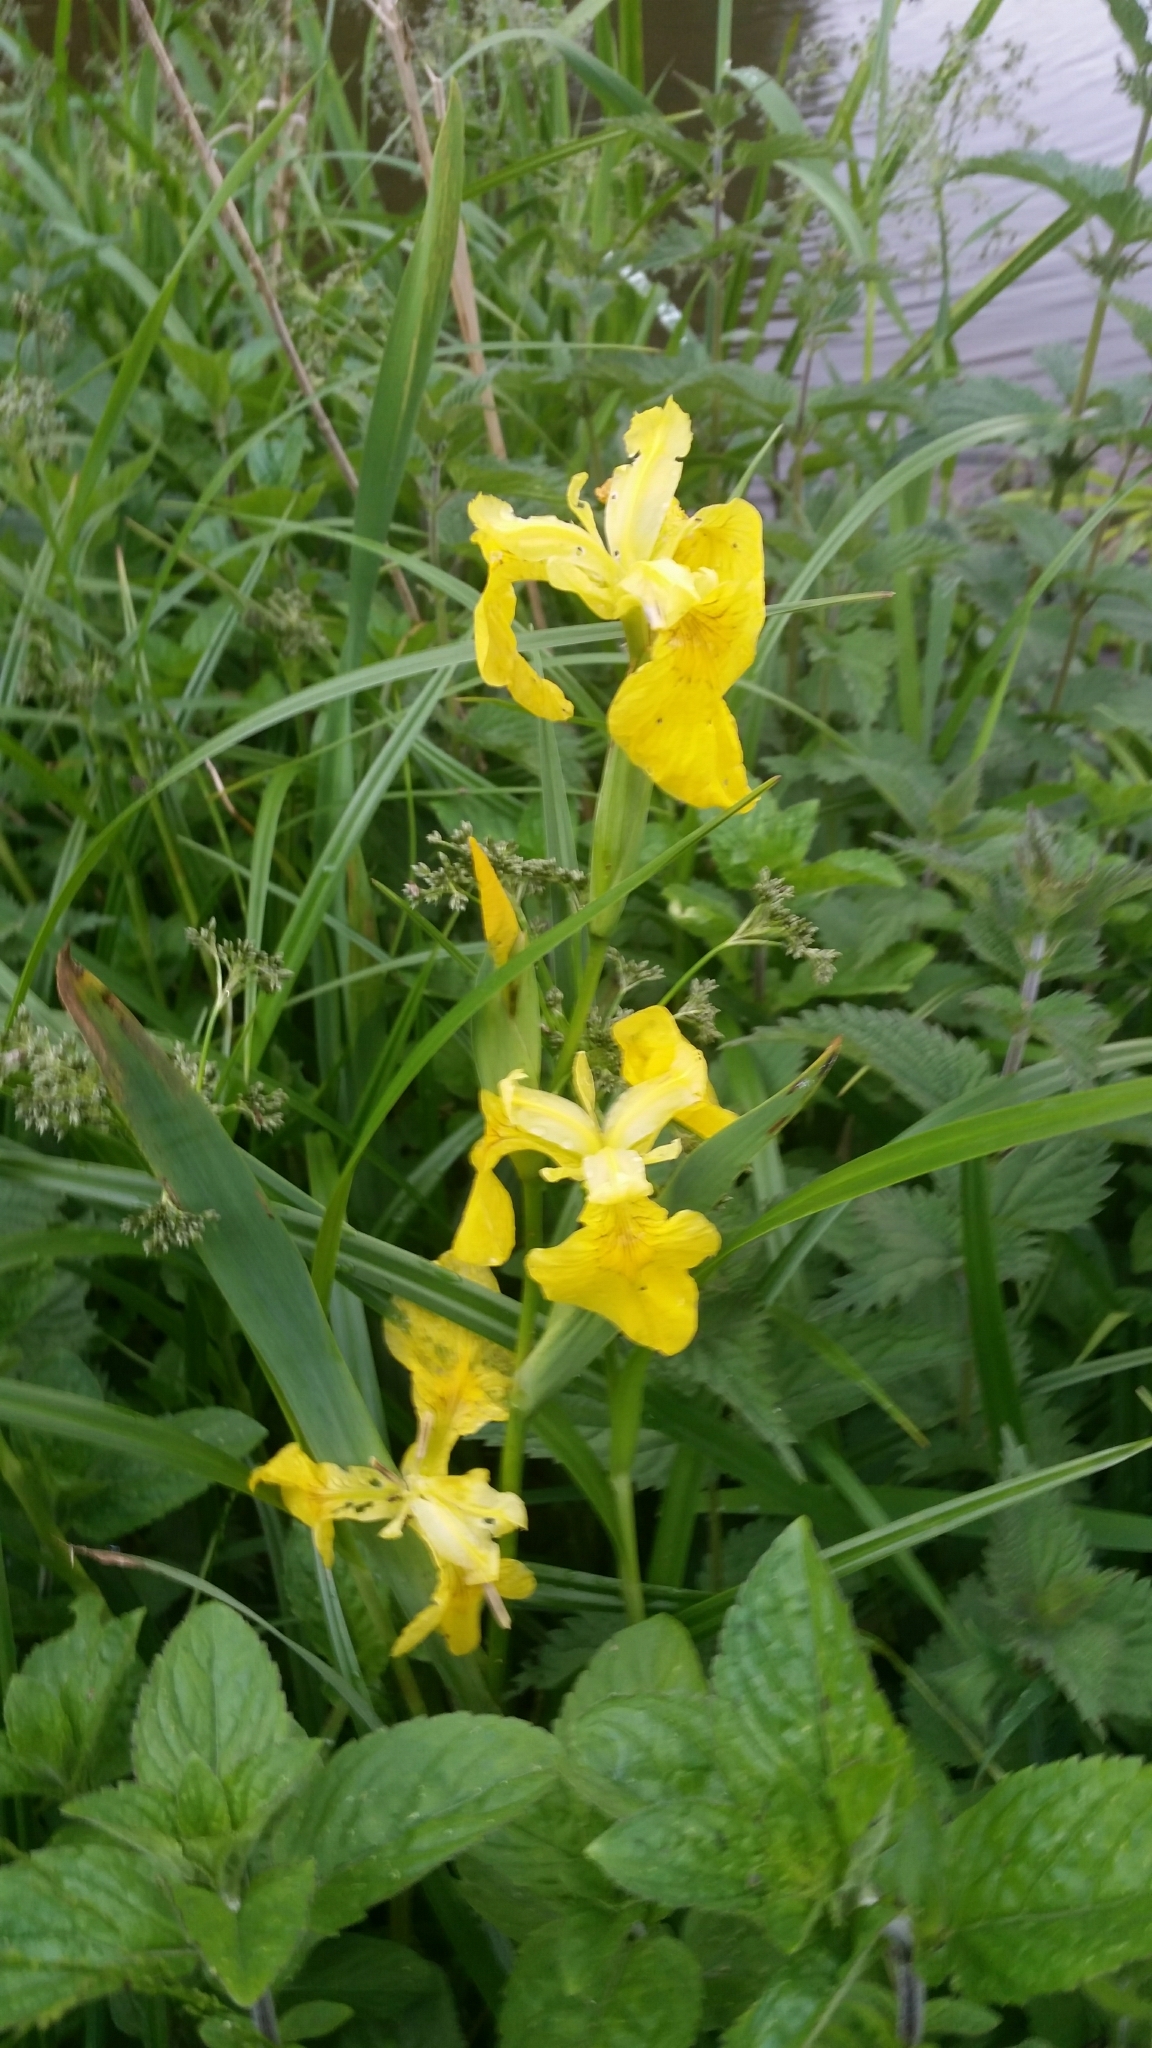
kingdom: Plantae
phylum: Tracheophyta
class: Liliopsida
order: Asparagales
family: Iridaceae
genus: Iris
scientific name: Iris pseudacorus
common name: Yellow flag
